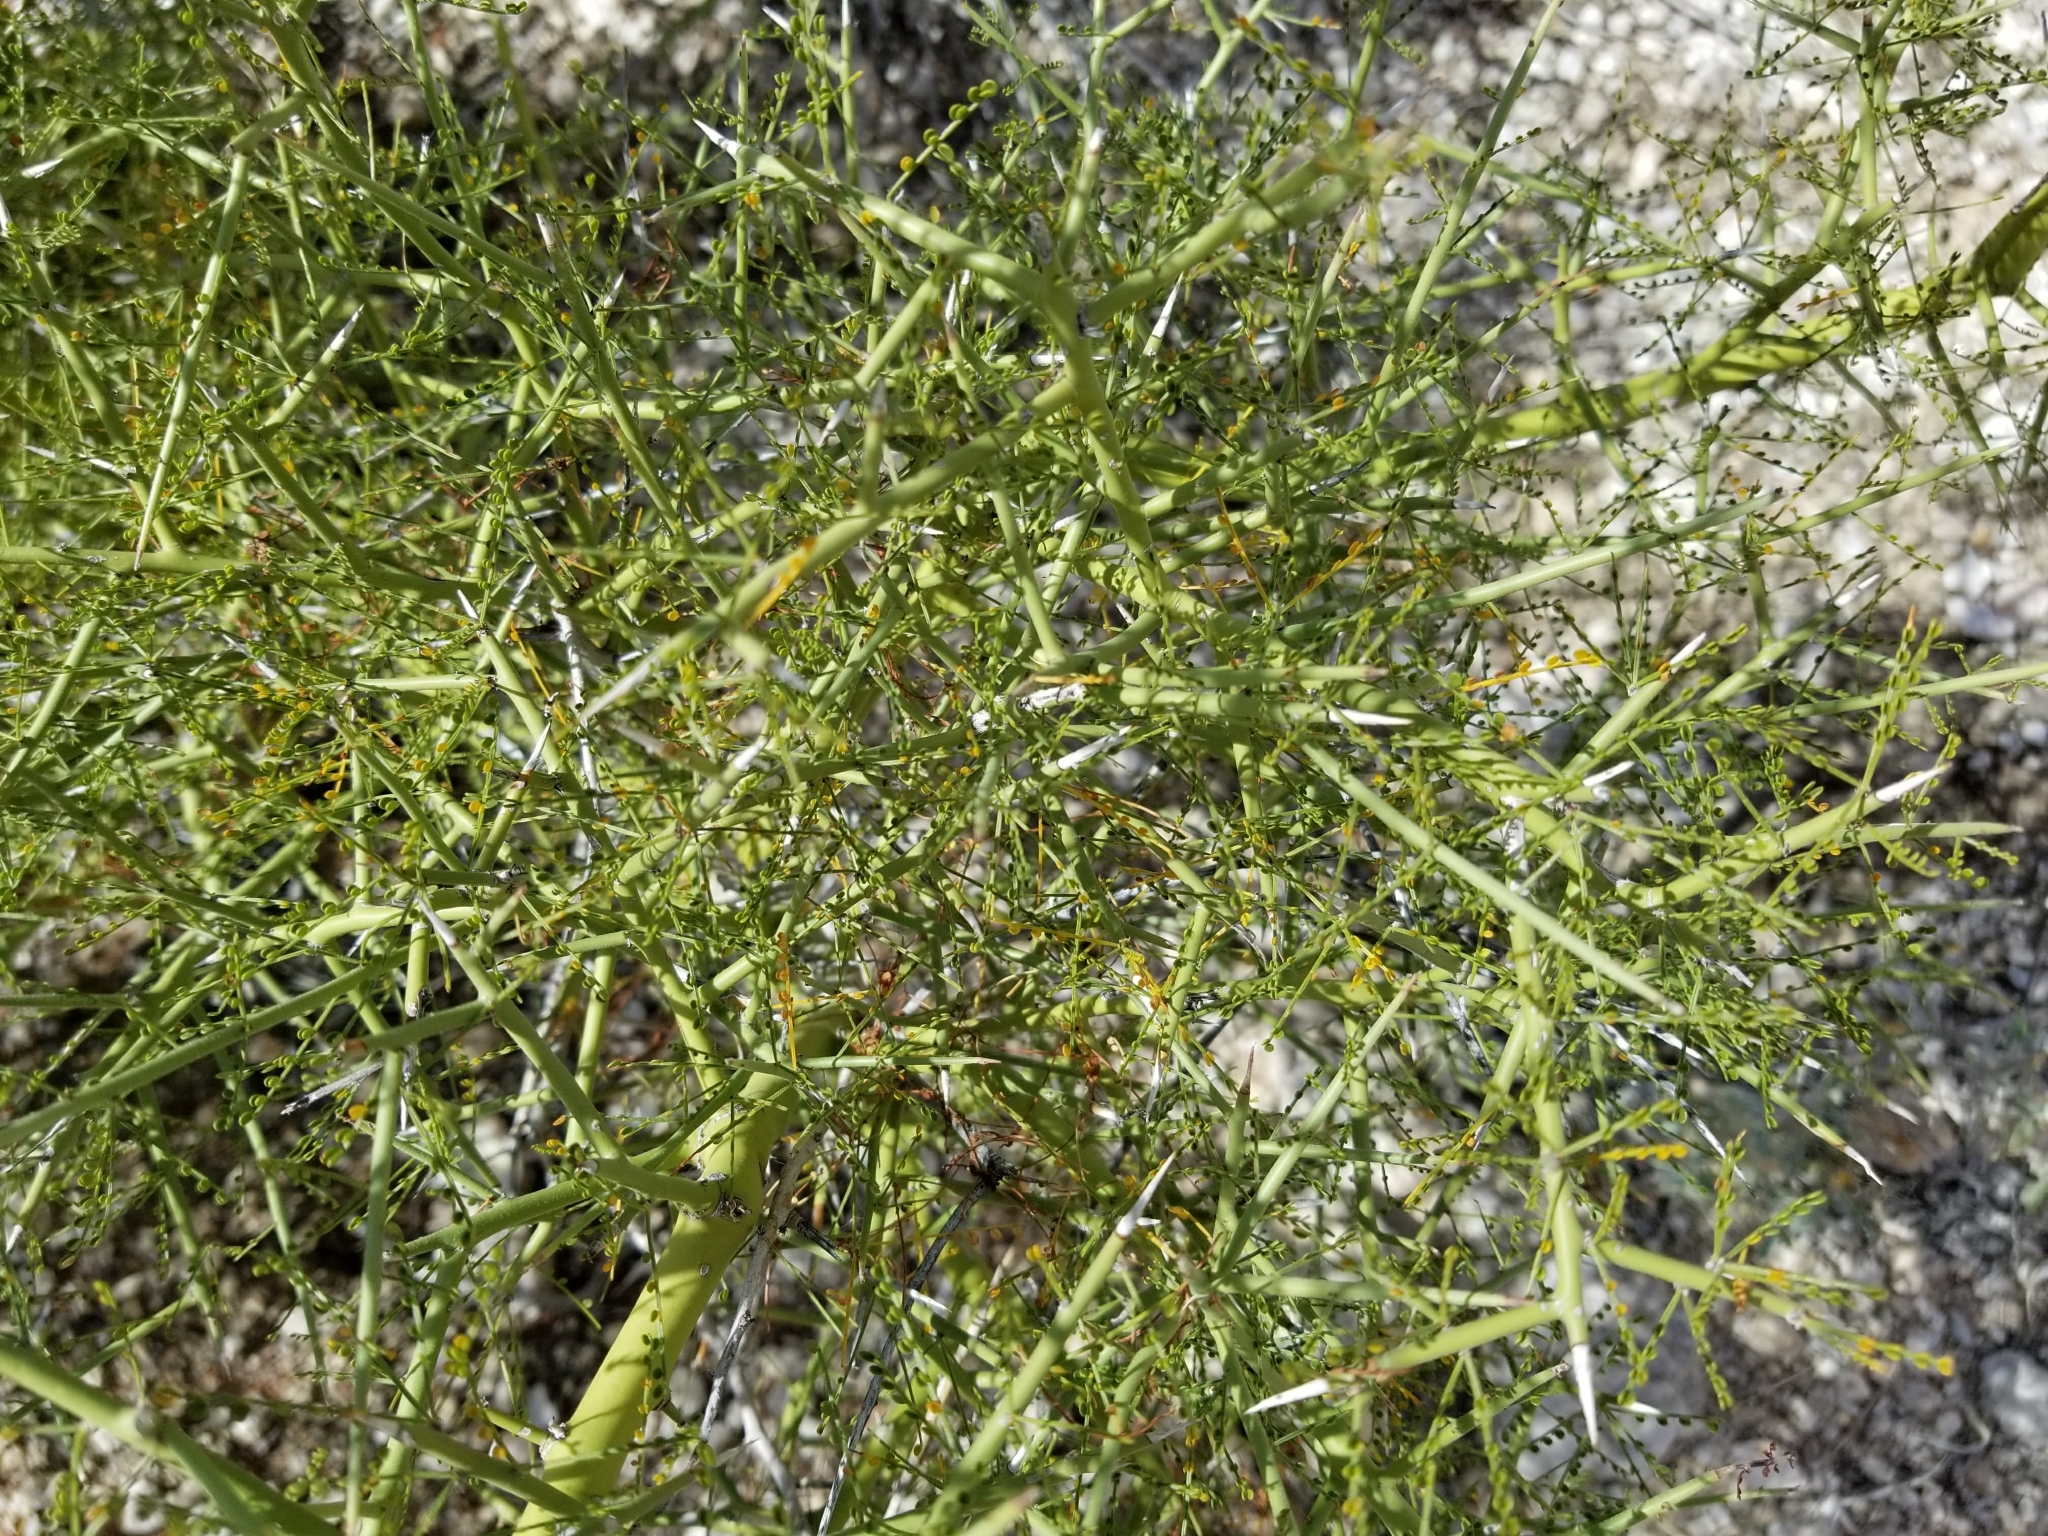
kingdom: Plantae
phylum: Tracheophyta
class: Magnoliopsida
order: Fabales
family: Fabaceae
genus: Parkinsonia
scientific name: Parkinsonia microphylla
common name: Yellow paloverde
